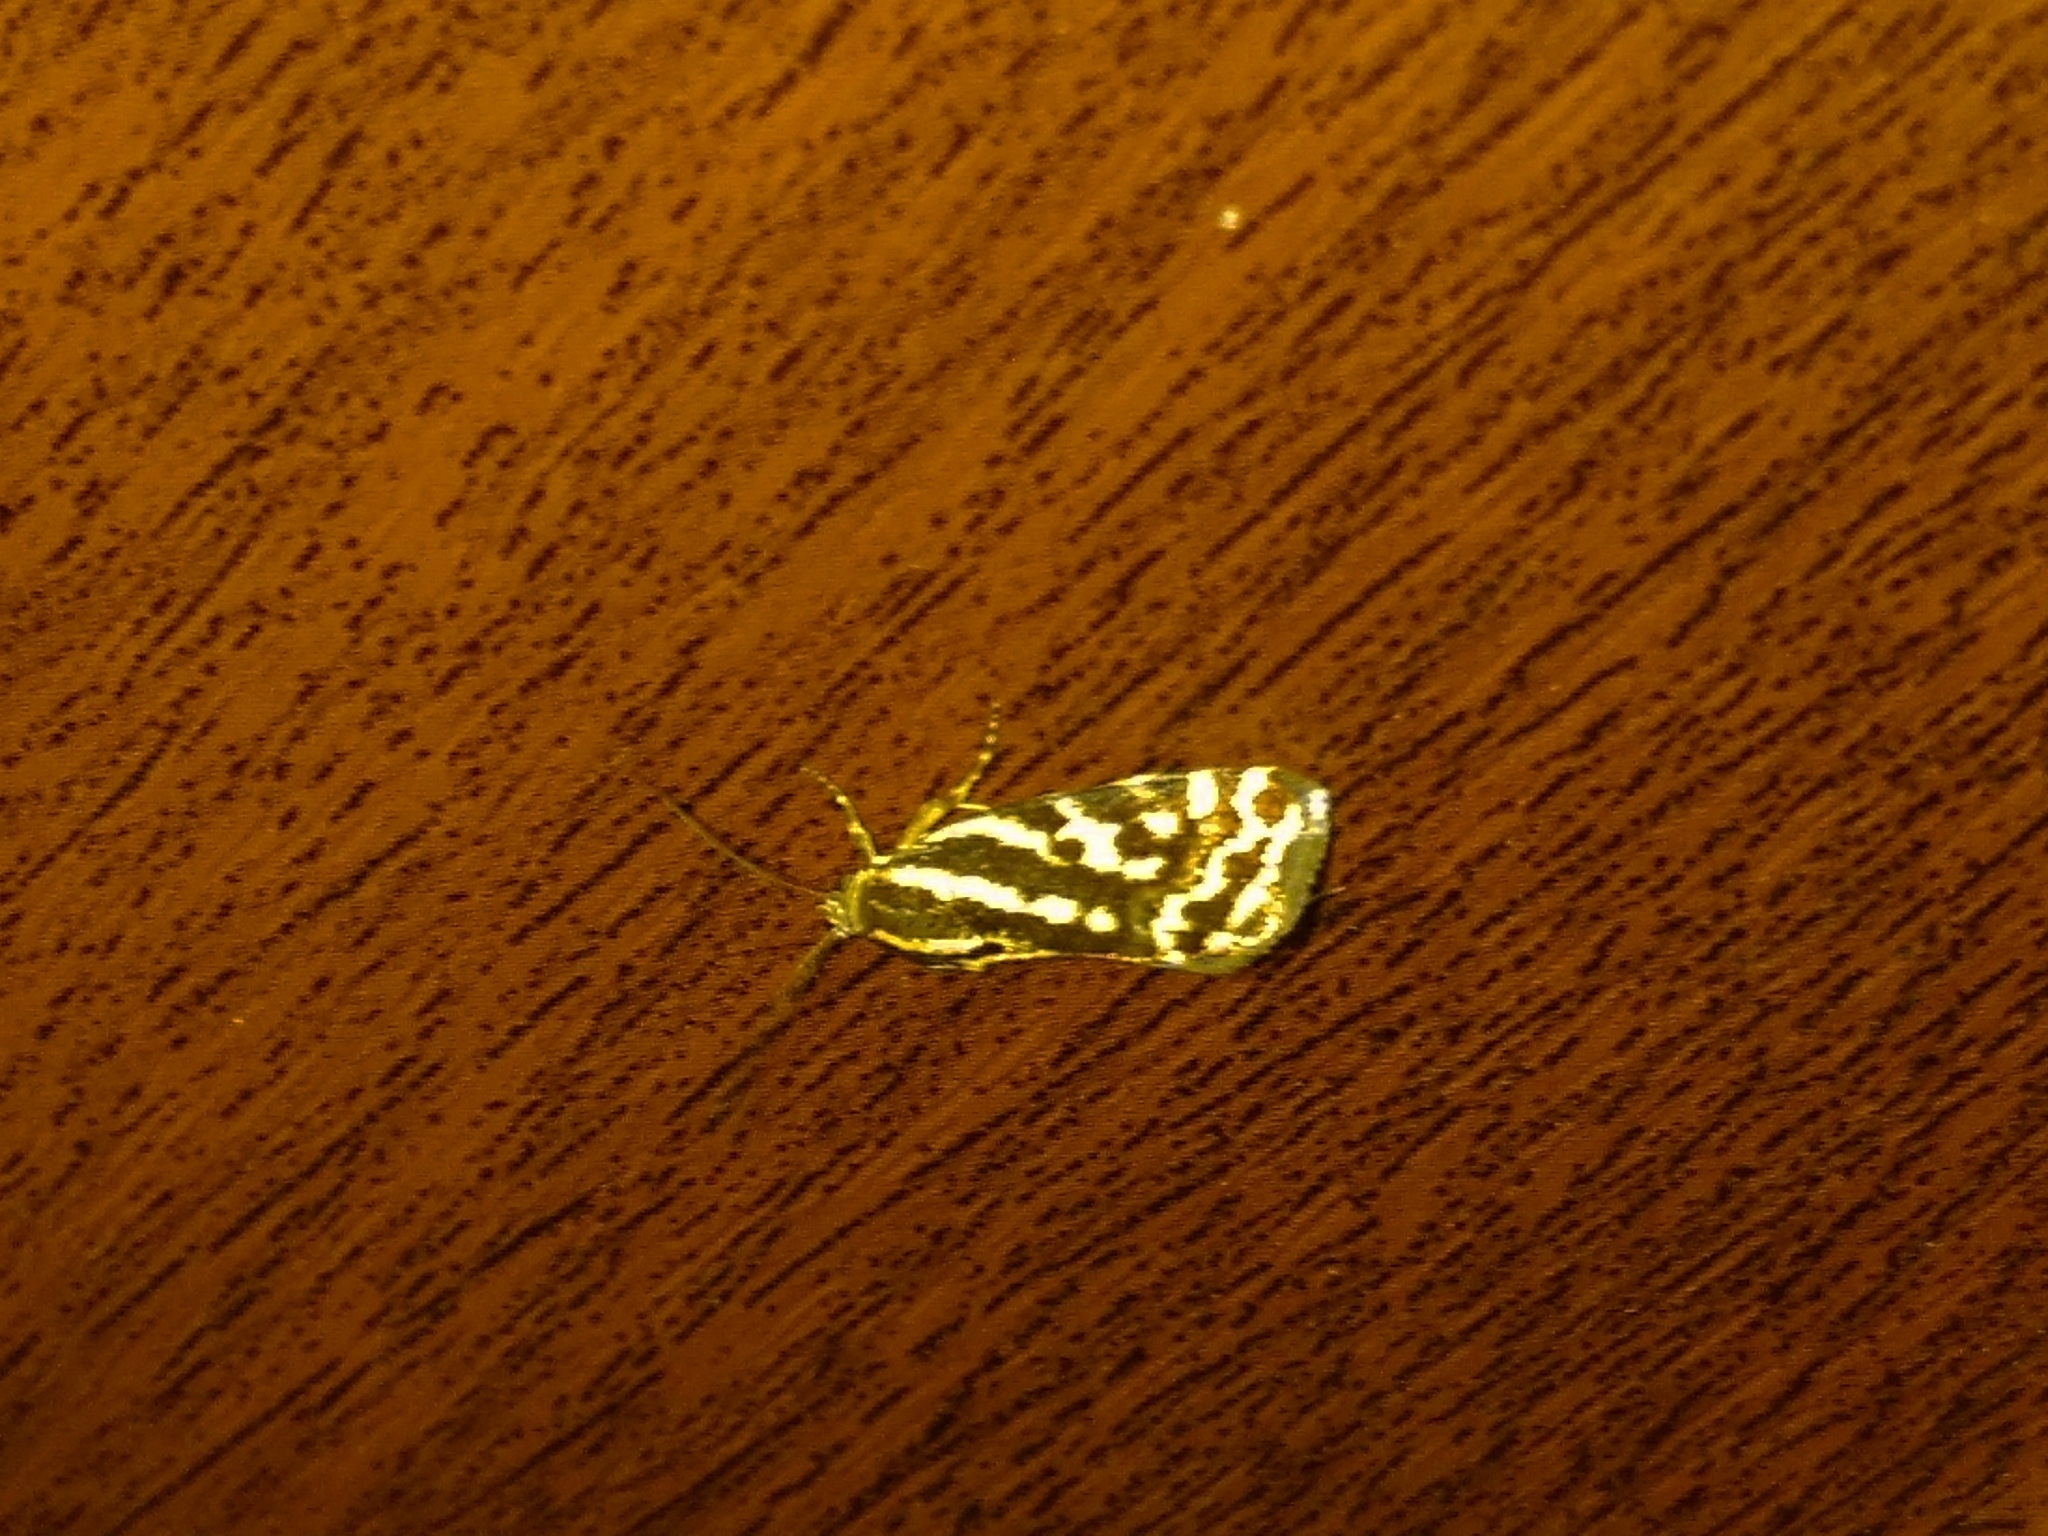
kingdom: Animalia
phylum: Arthropoda
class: Insecta
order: Lepidoptera
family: Noctuidae
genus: Acontia
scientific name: Acontia trabealis
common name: Spotted sulphur
